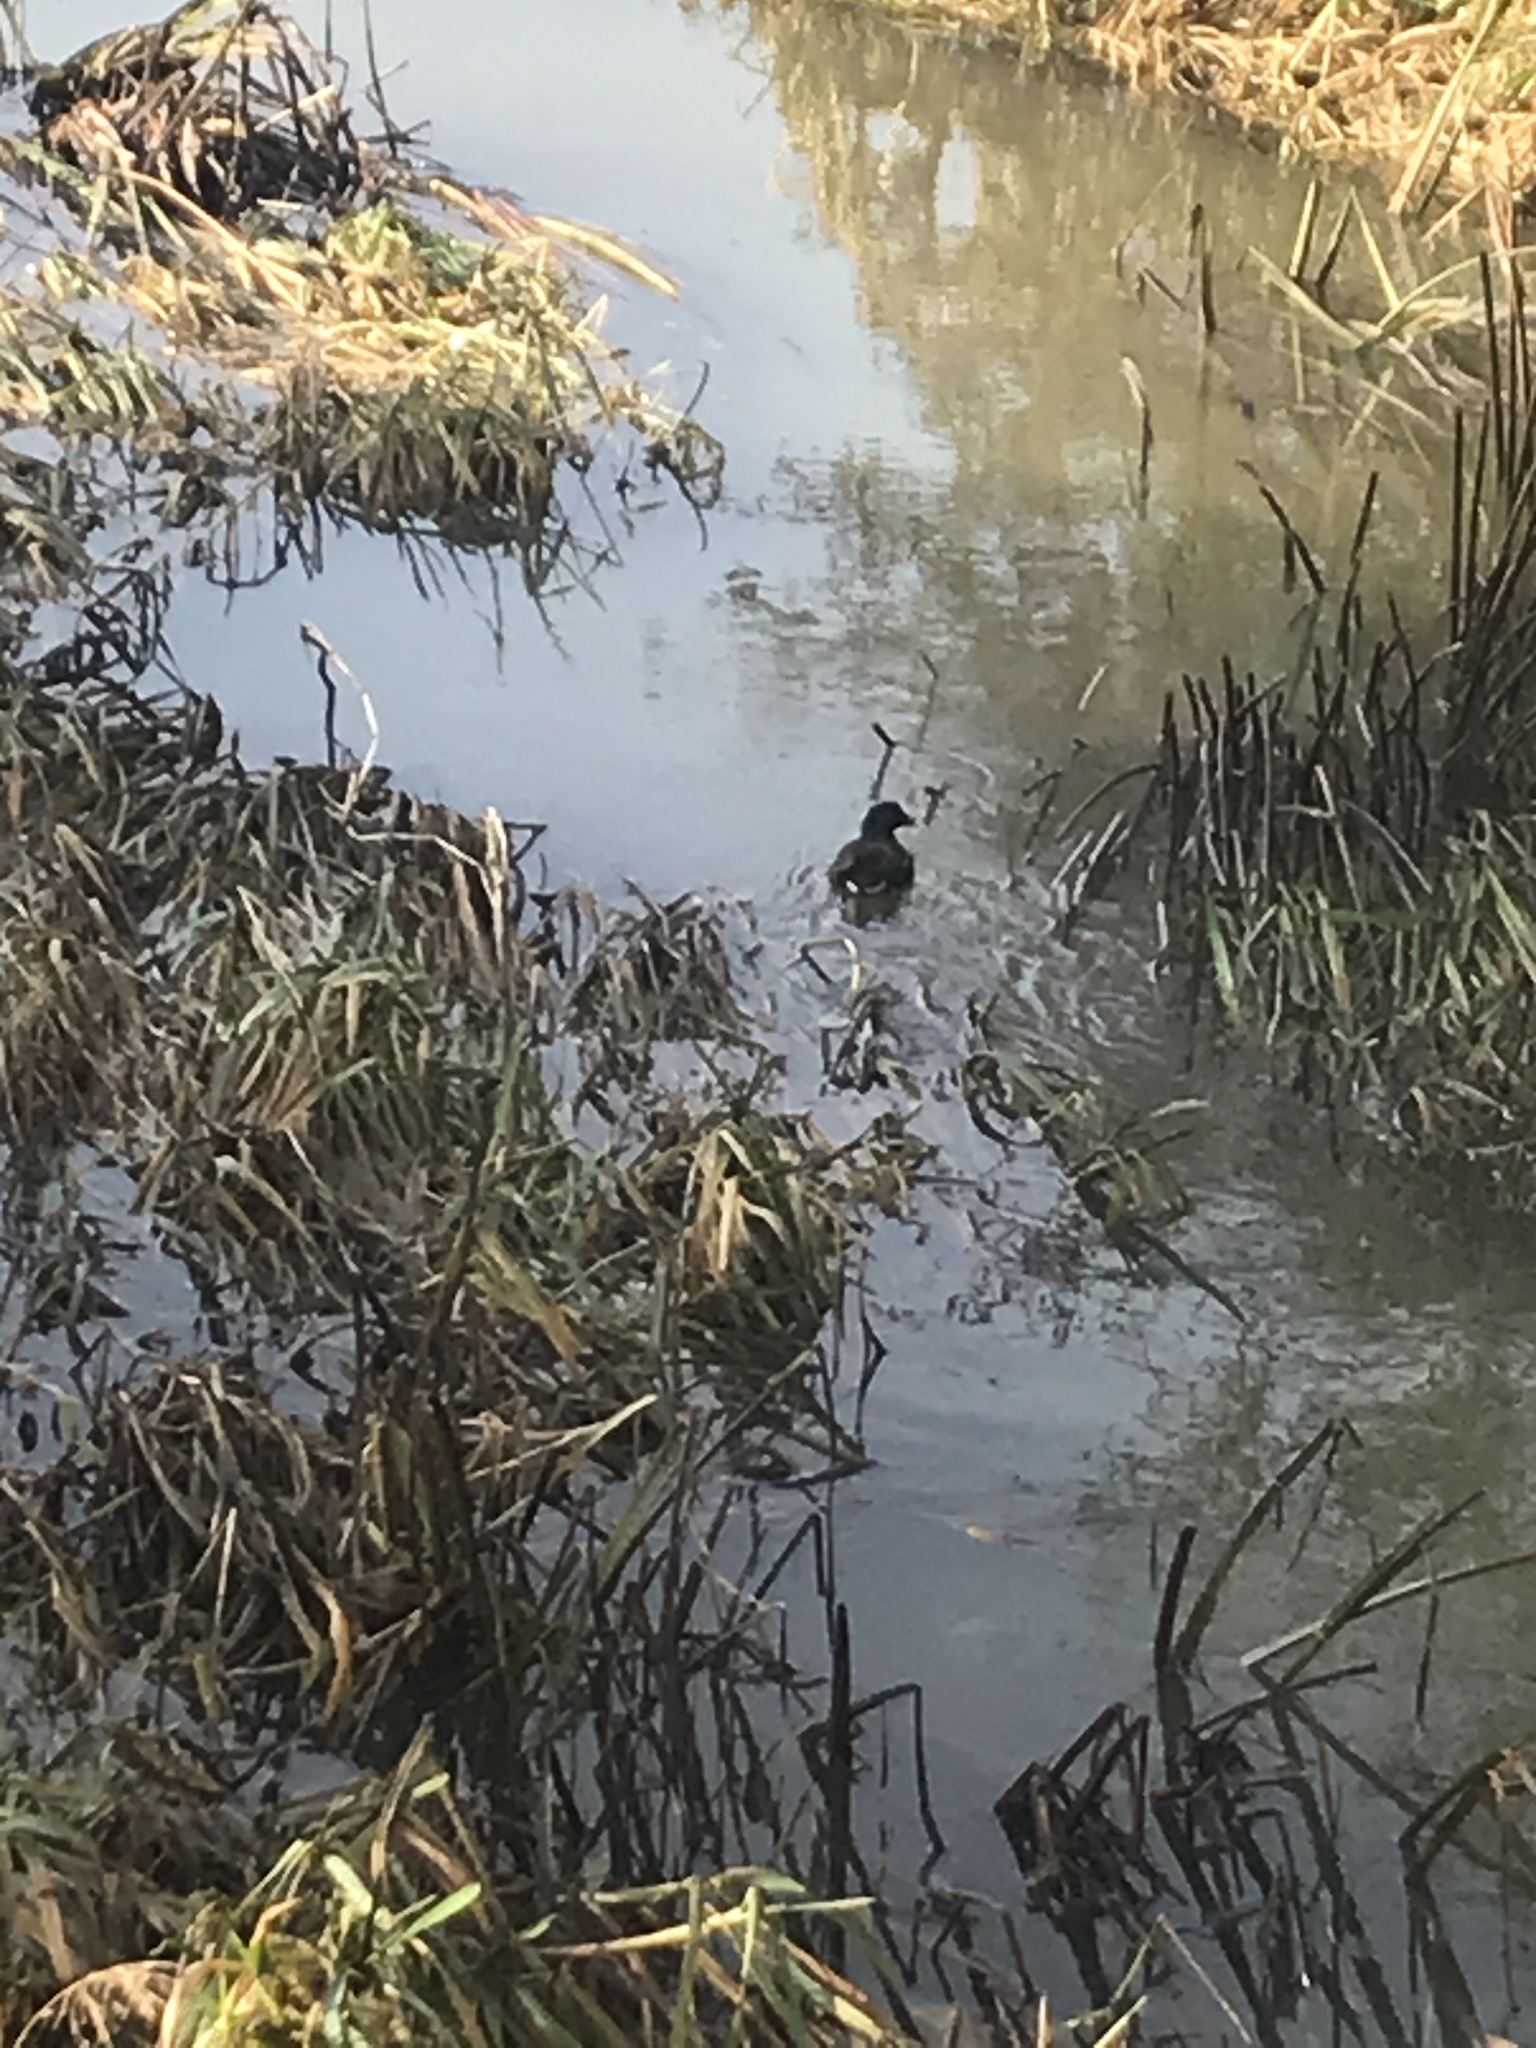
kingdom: Animalia
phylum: Chordata
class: Aves
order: Gruiformes
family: Rallidae
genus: Gallinula
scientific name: Gallinula chloropus
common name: Common moorhen
